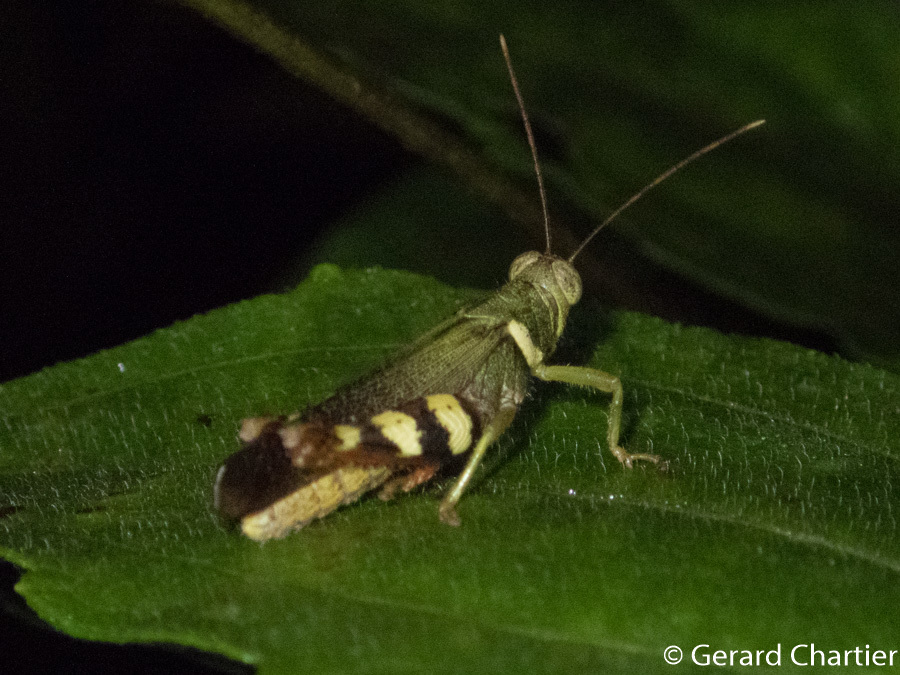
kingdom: Animalia
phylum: Arthropoda
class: Insecta
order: Orthoptera
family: Acrididae
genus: Apalacris
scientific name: Apalacris varicornis
